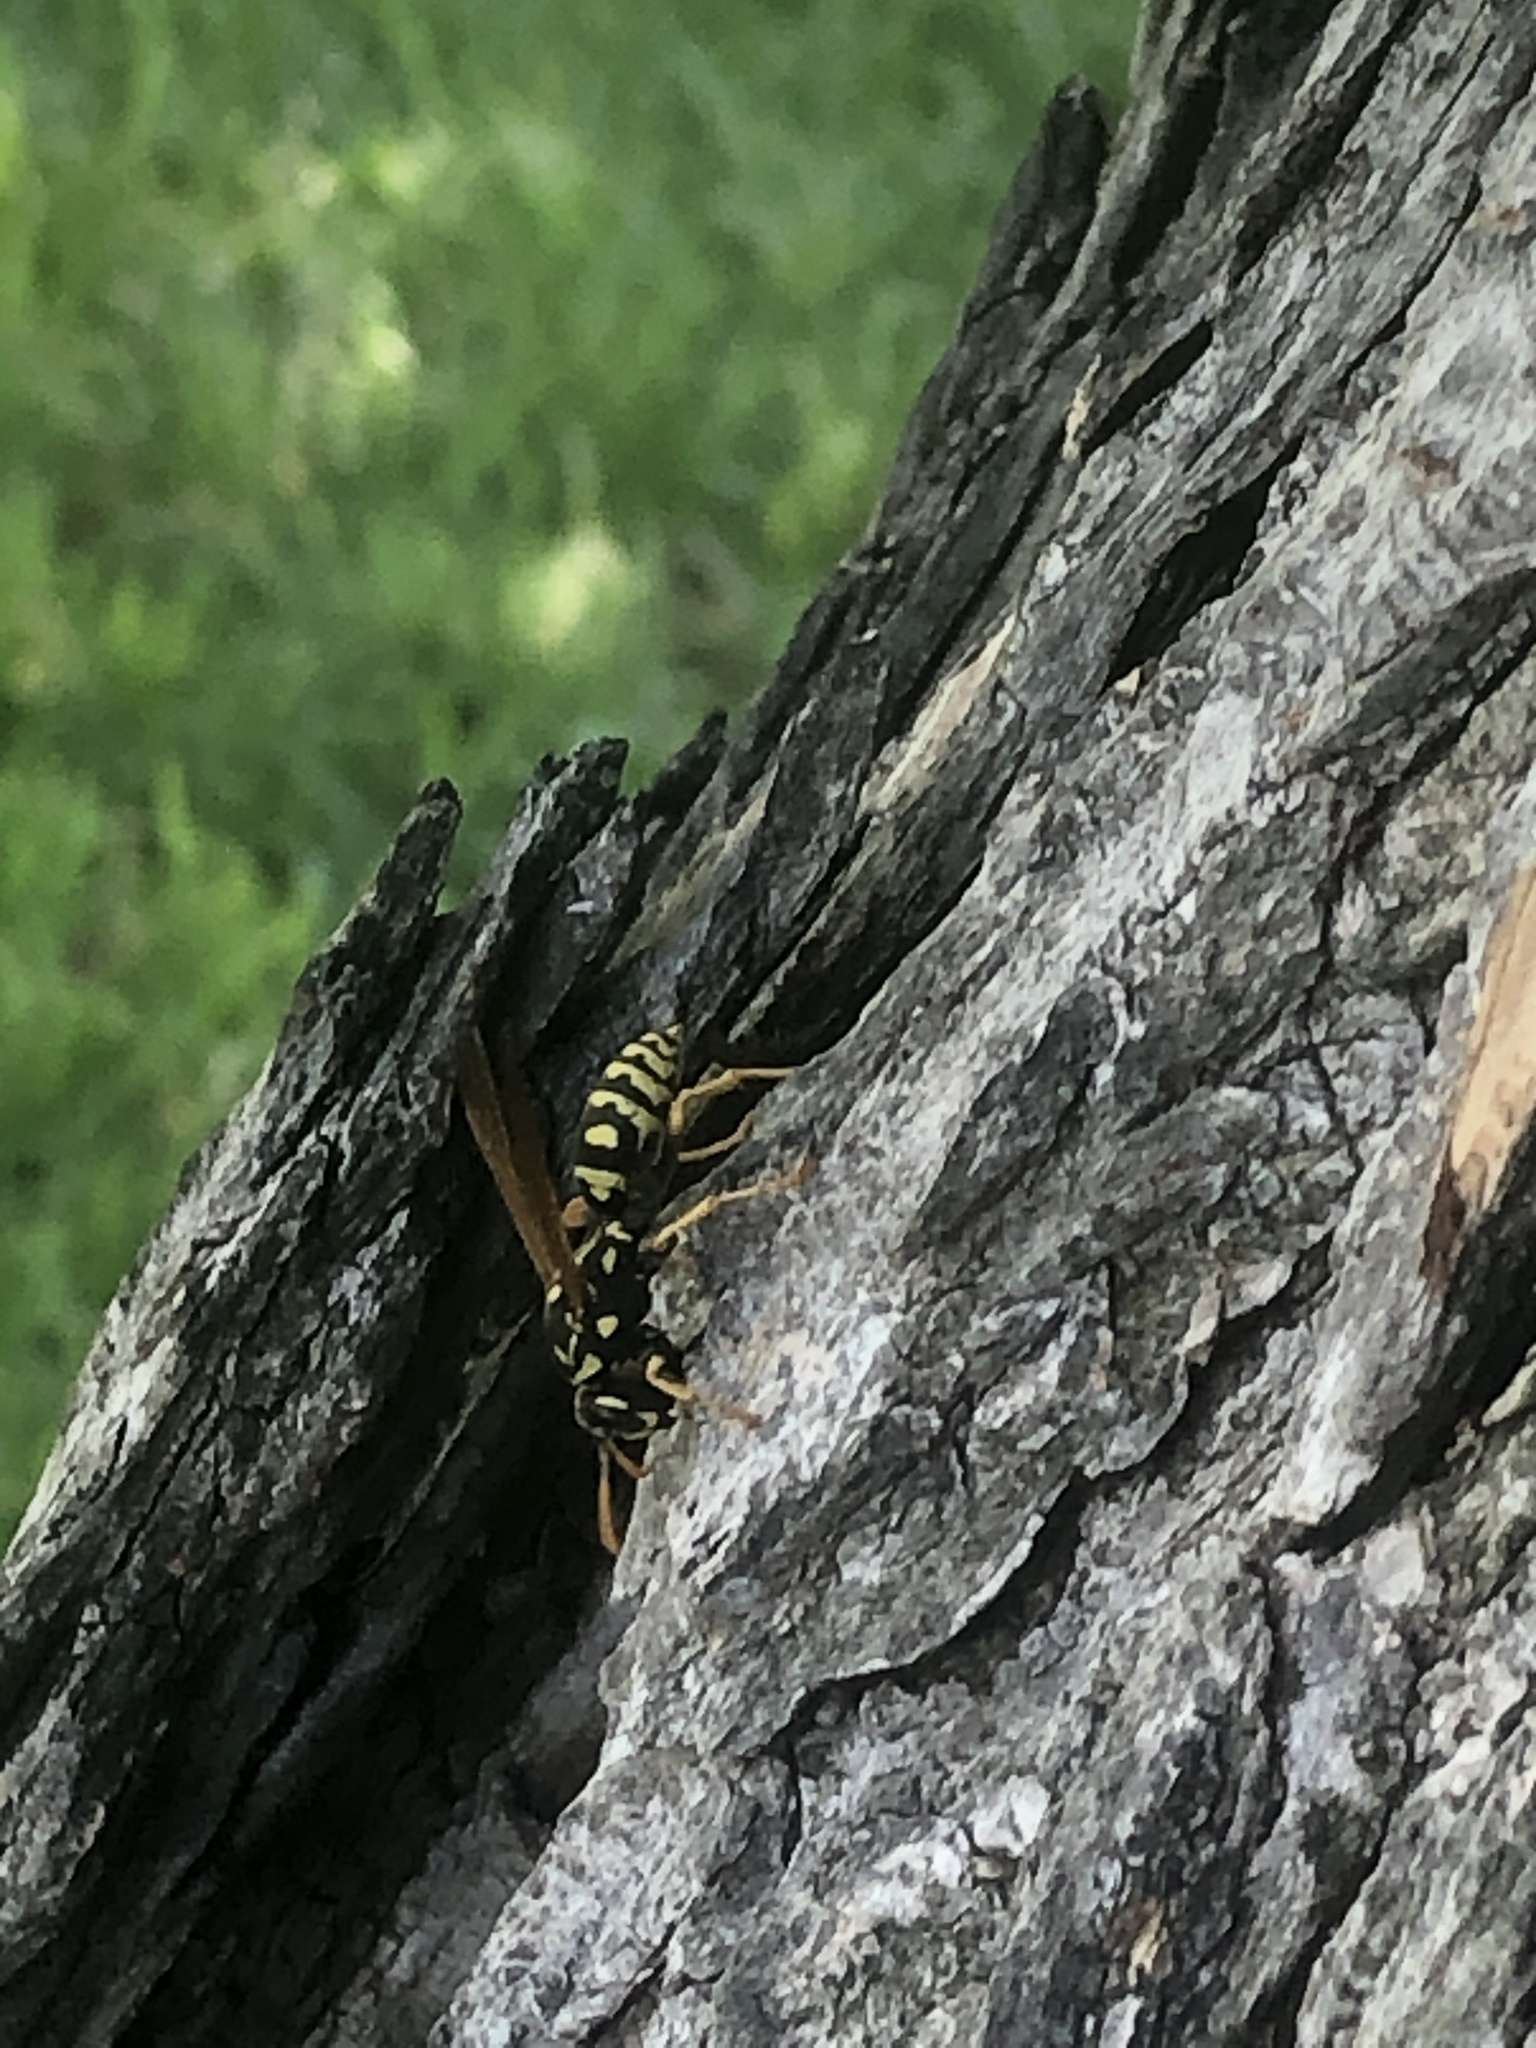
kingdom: Animalia
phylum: Arthropoda
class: Insecta
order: Hymenoptera
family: Eumenidae
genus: Polistes
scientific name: Polistes dominula
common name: Paper wasp
